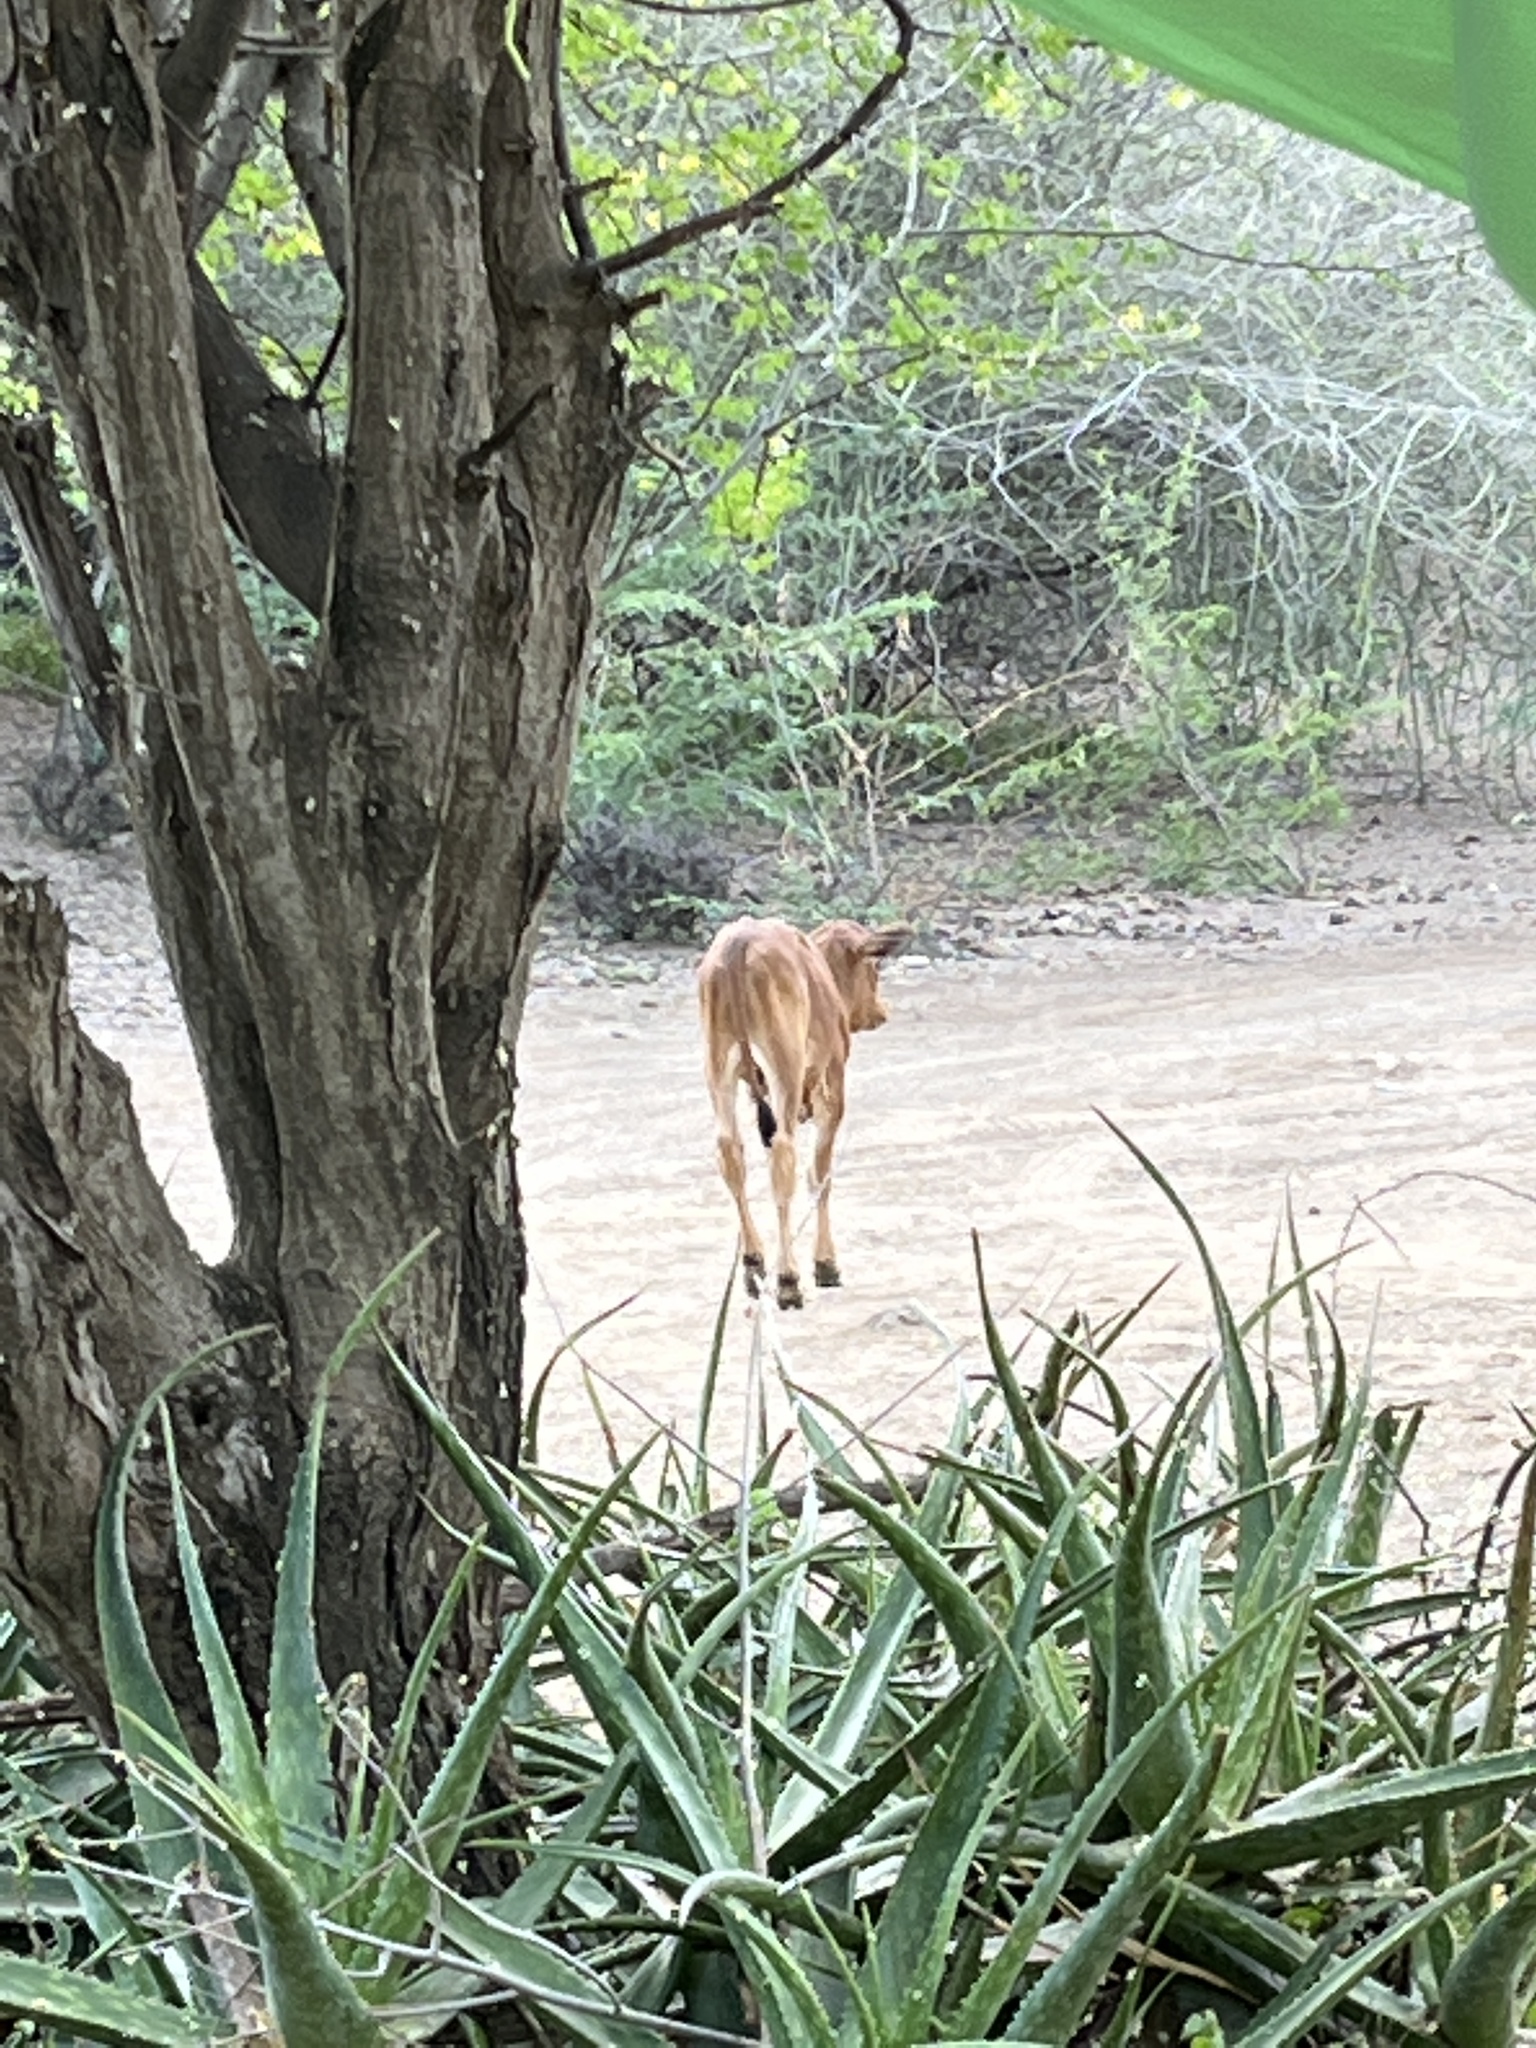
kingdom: Animalia
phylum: Chordata
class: Mammalia
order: Artiodactyla
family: Bovidae
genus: Bos
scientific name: Bos taurus
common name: Domesticated cattle
